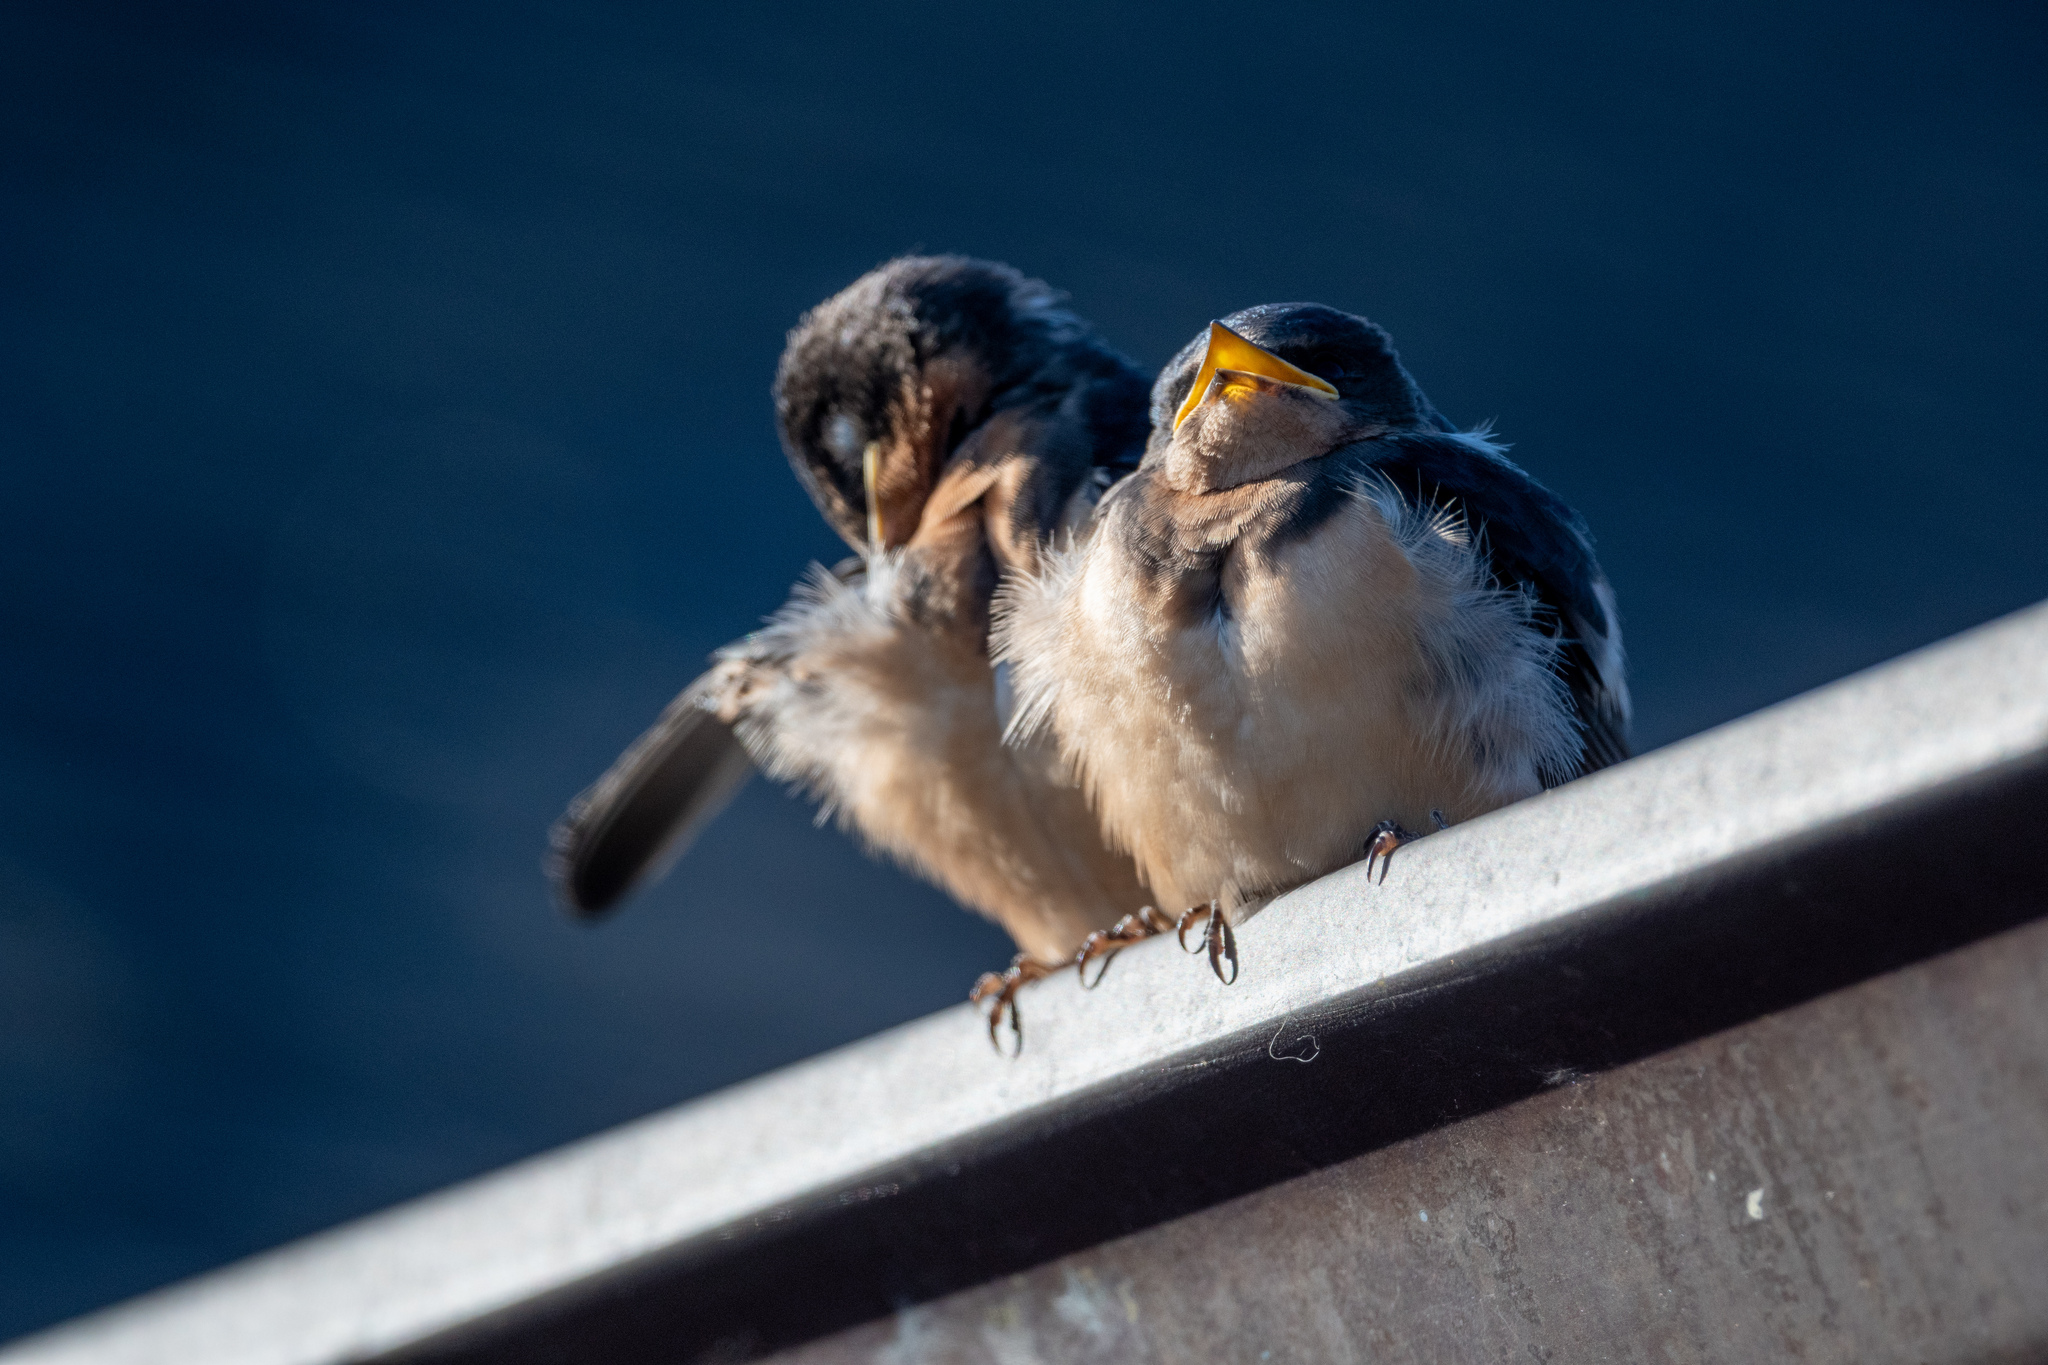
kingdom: Animalia
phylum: Chordata
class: Aves
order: Passeriformes
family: Hirundinidae
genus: Hirundo
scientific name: Hirundo rustica
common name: Barn swallow
